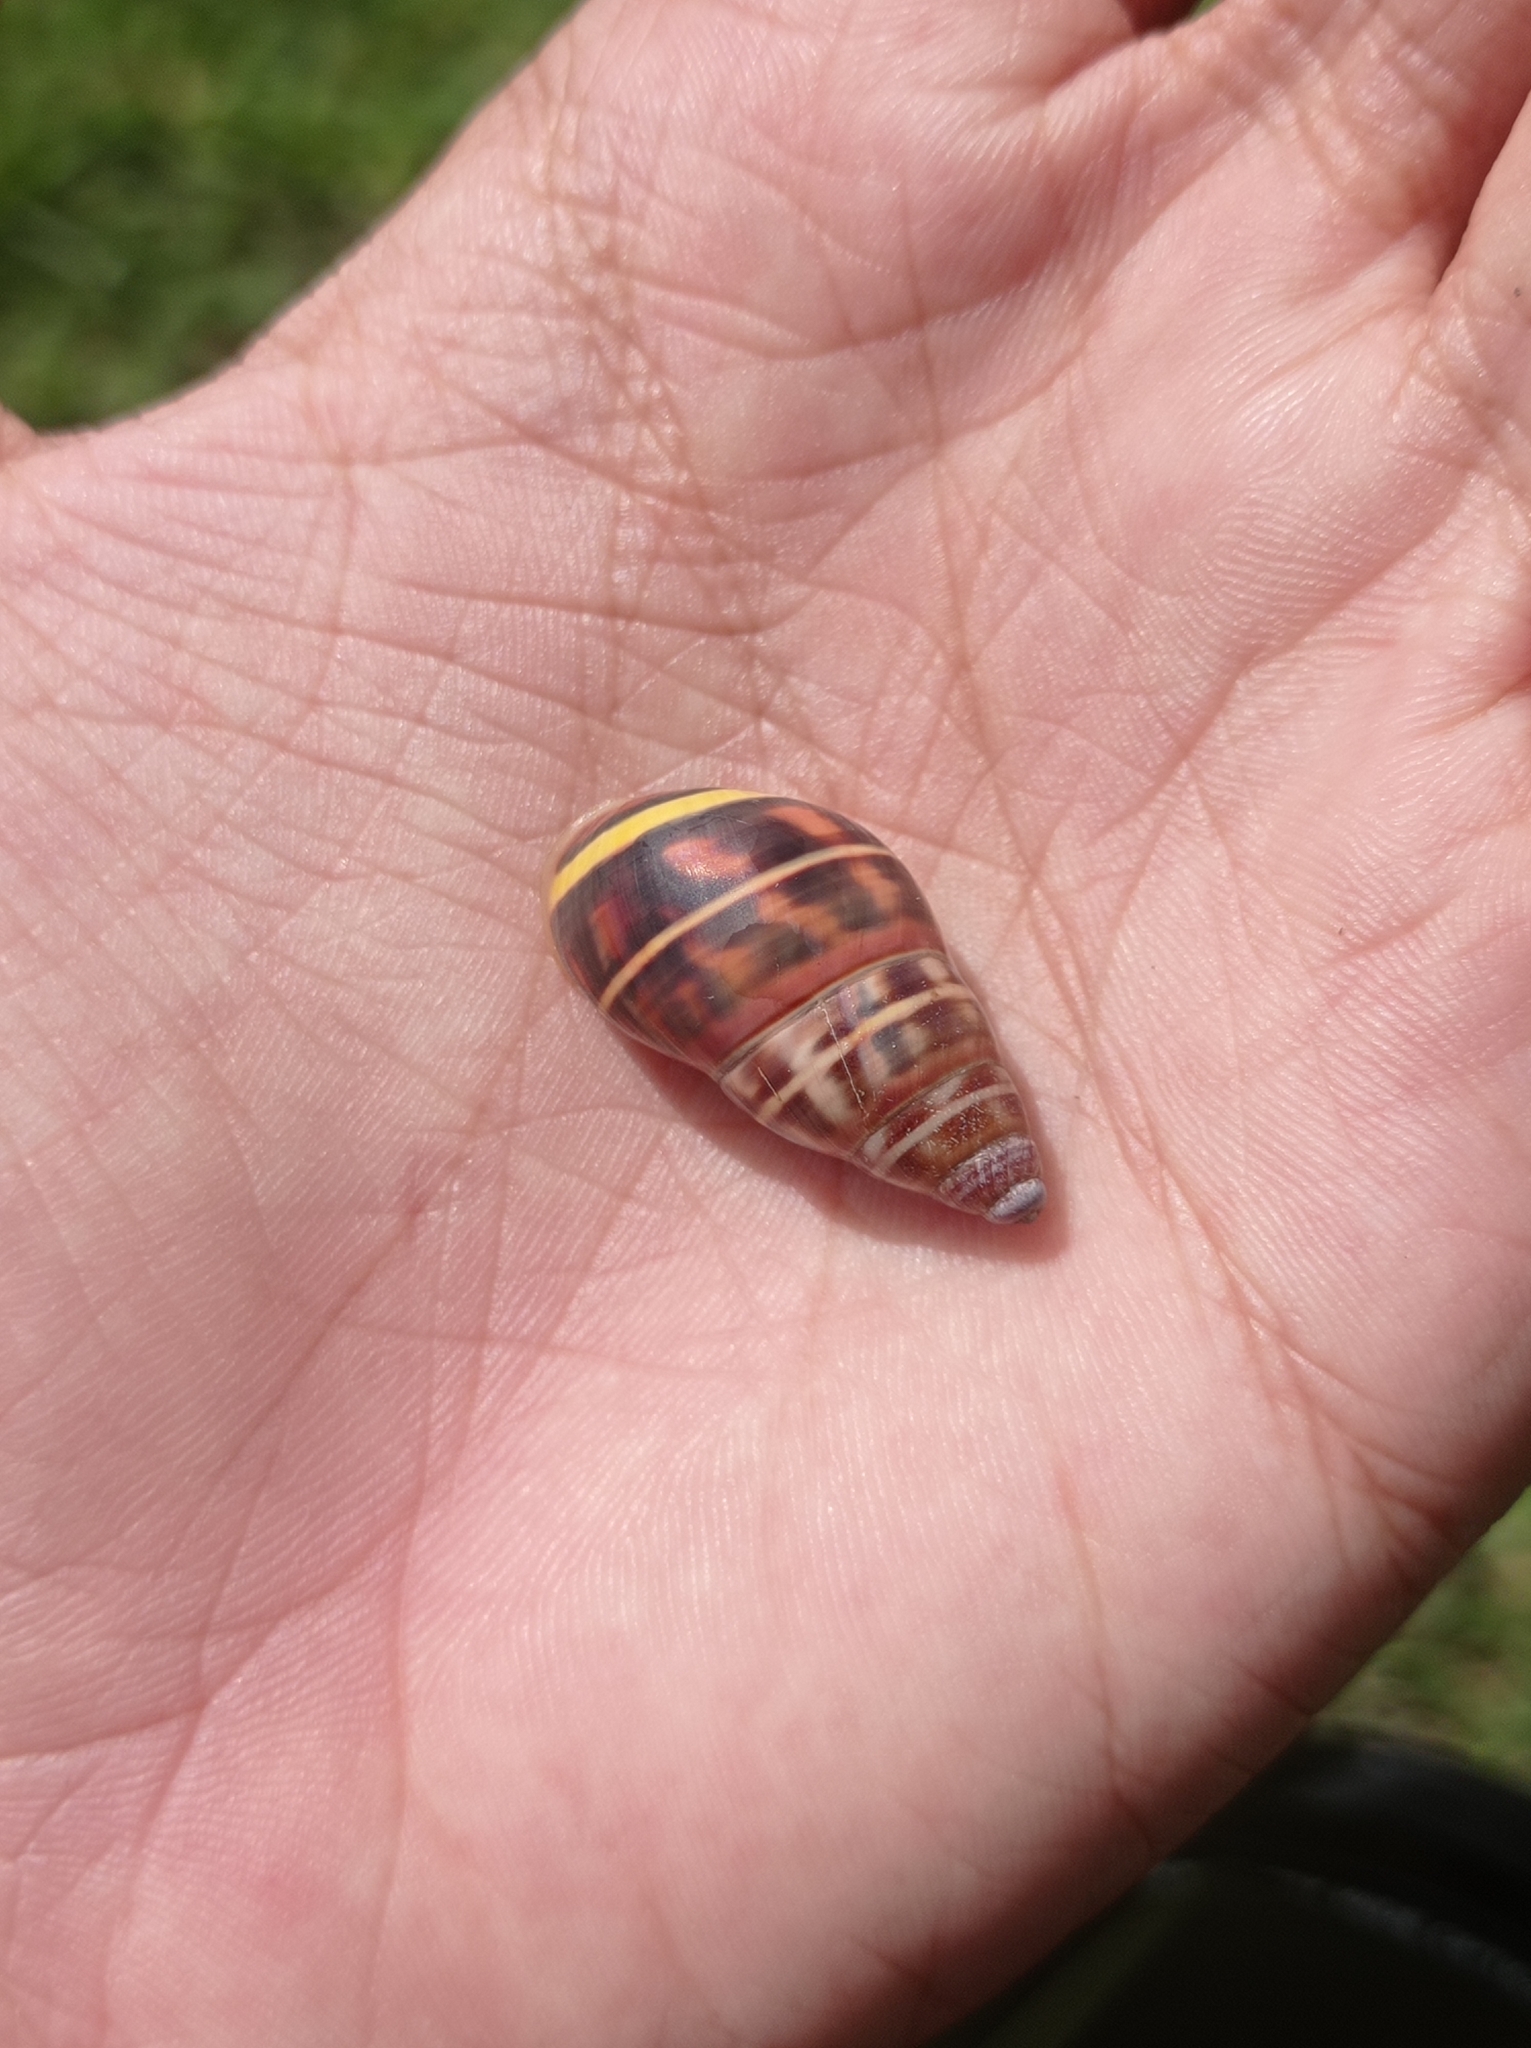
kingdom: Animalia
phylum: Mollusca
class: Gastropoda
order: Stylommatophora
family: Camaenidae
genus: Amphidromus
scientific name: Amphidromus contrarius
